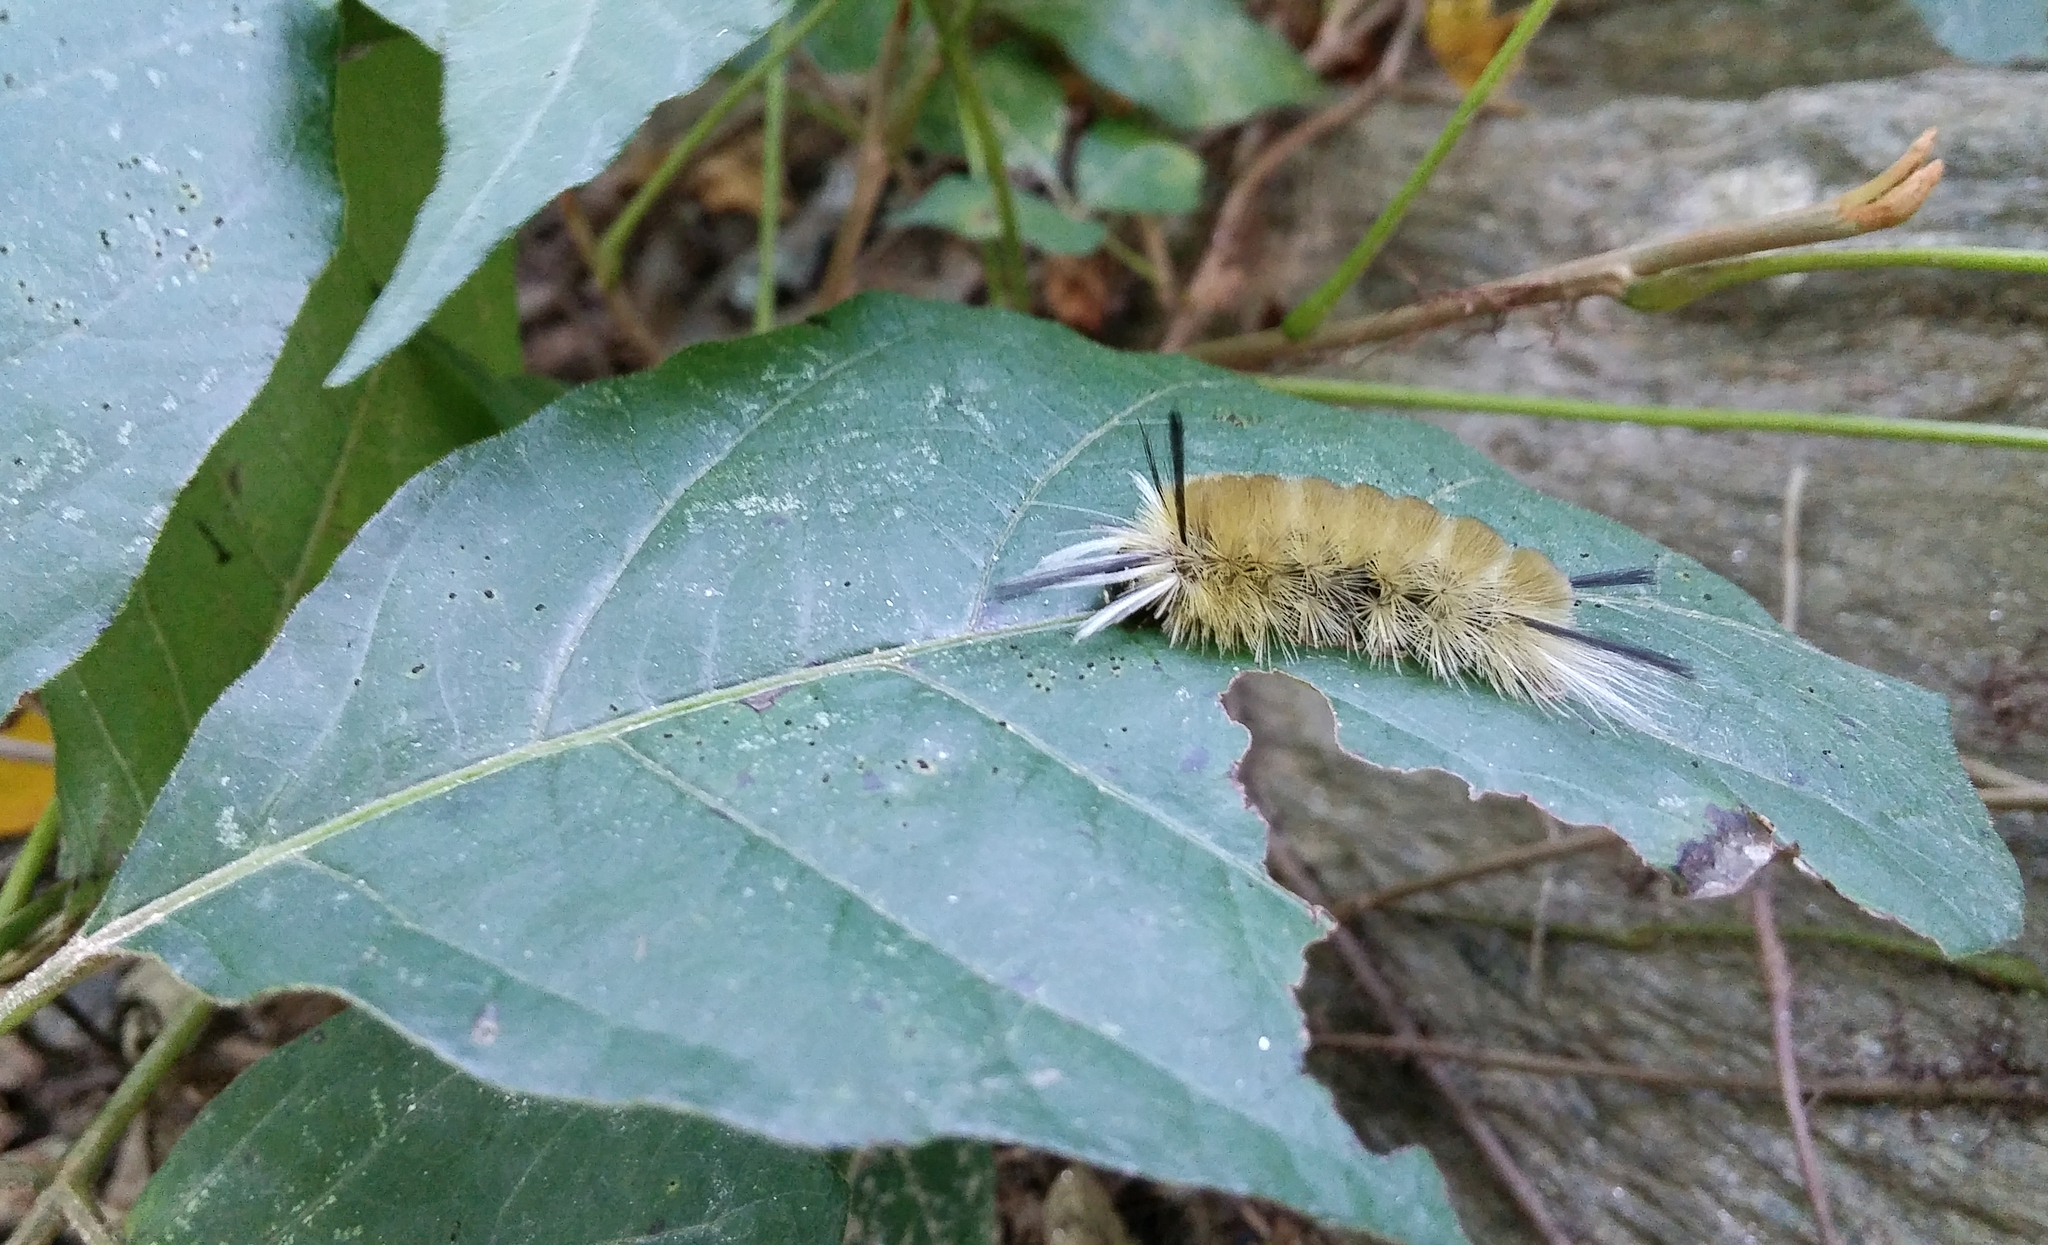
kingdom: Animalia
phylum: Arthropoda
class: Insecta
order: Lepidoptera
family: Erebidae
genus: Halysidota
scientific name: Halysidota tessellaris
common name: Banded tussock moth
